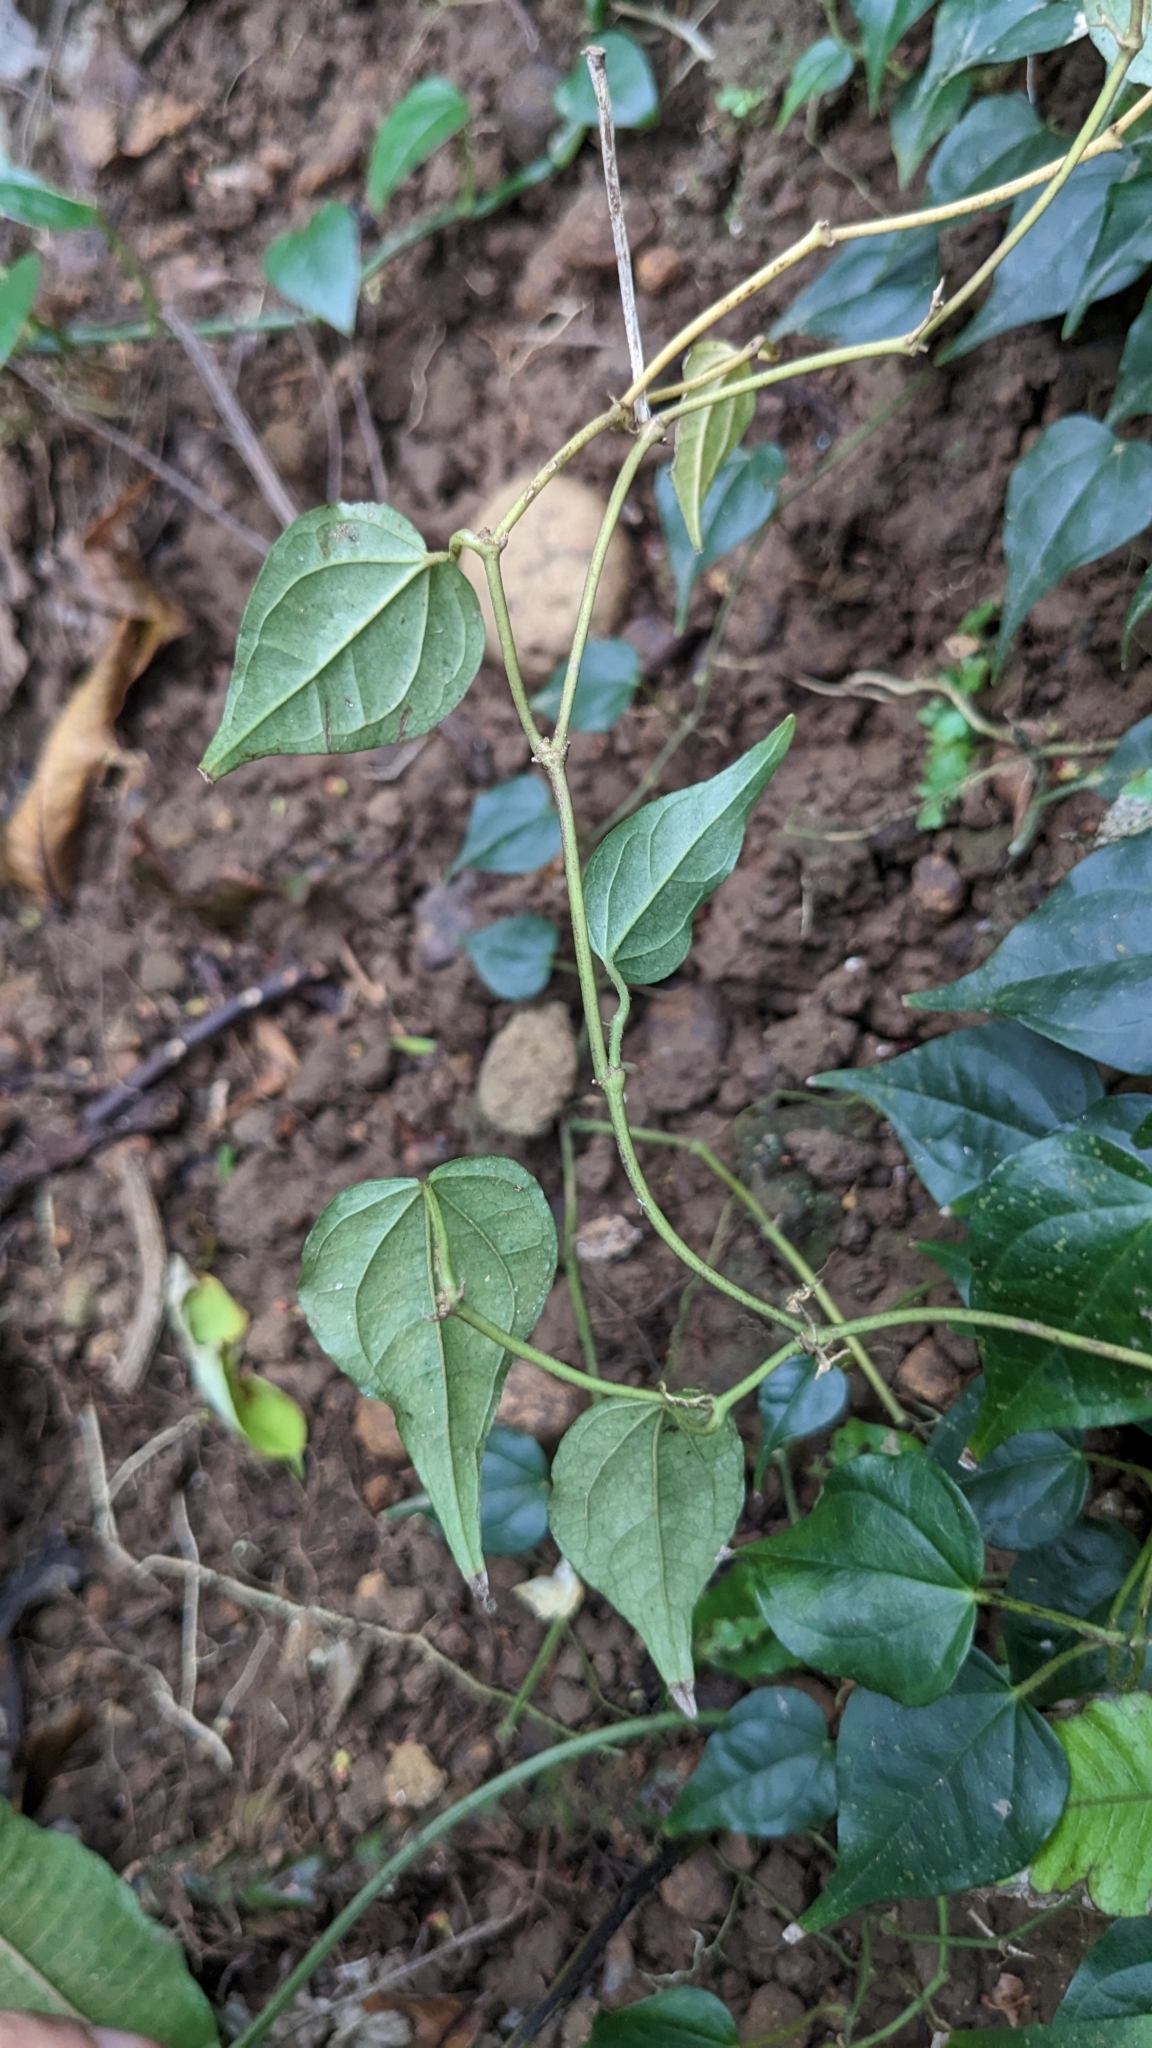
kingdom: Plantae
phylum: Tracheophyta
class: Magnoliopsida
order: Piperales
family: Piperaceae
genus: Piper
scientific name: Piper
